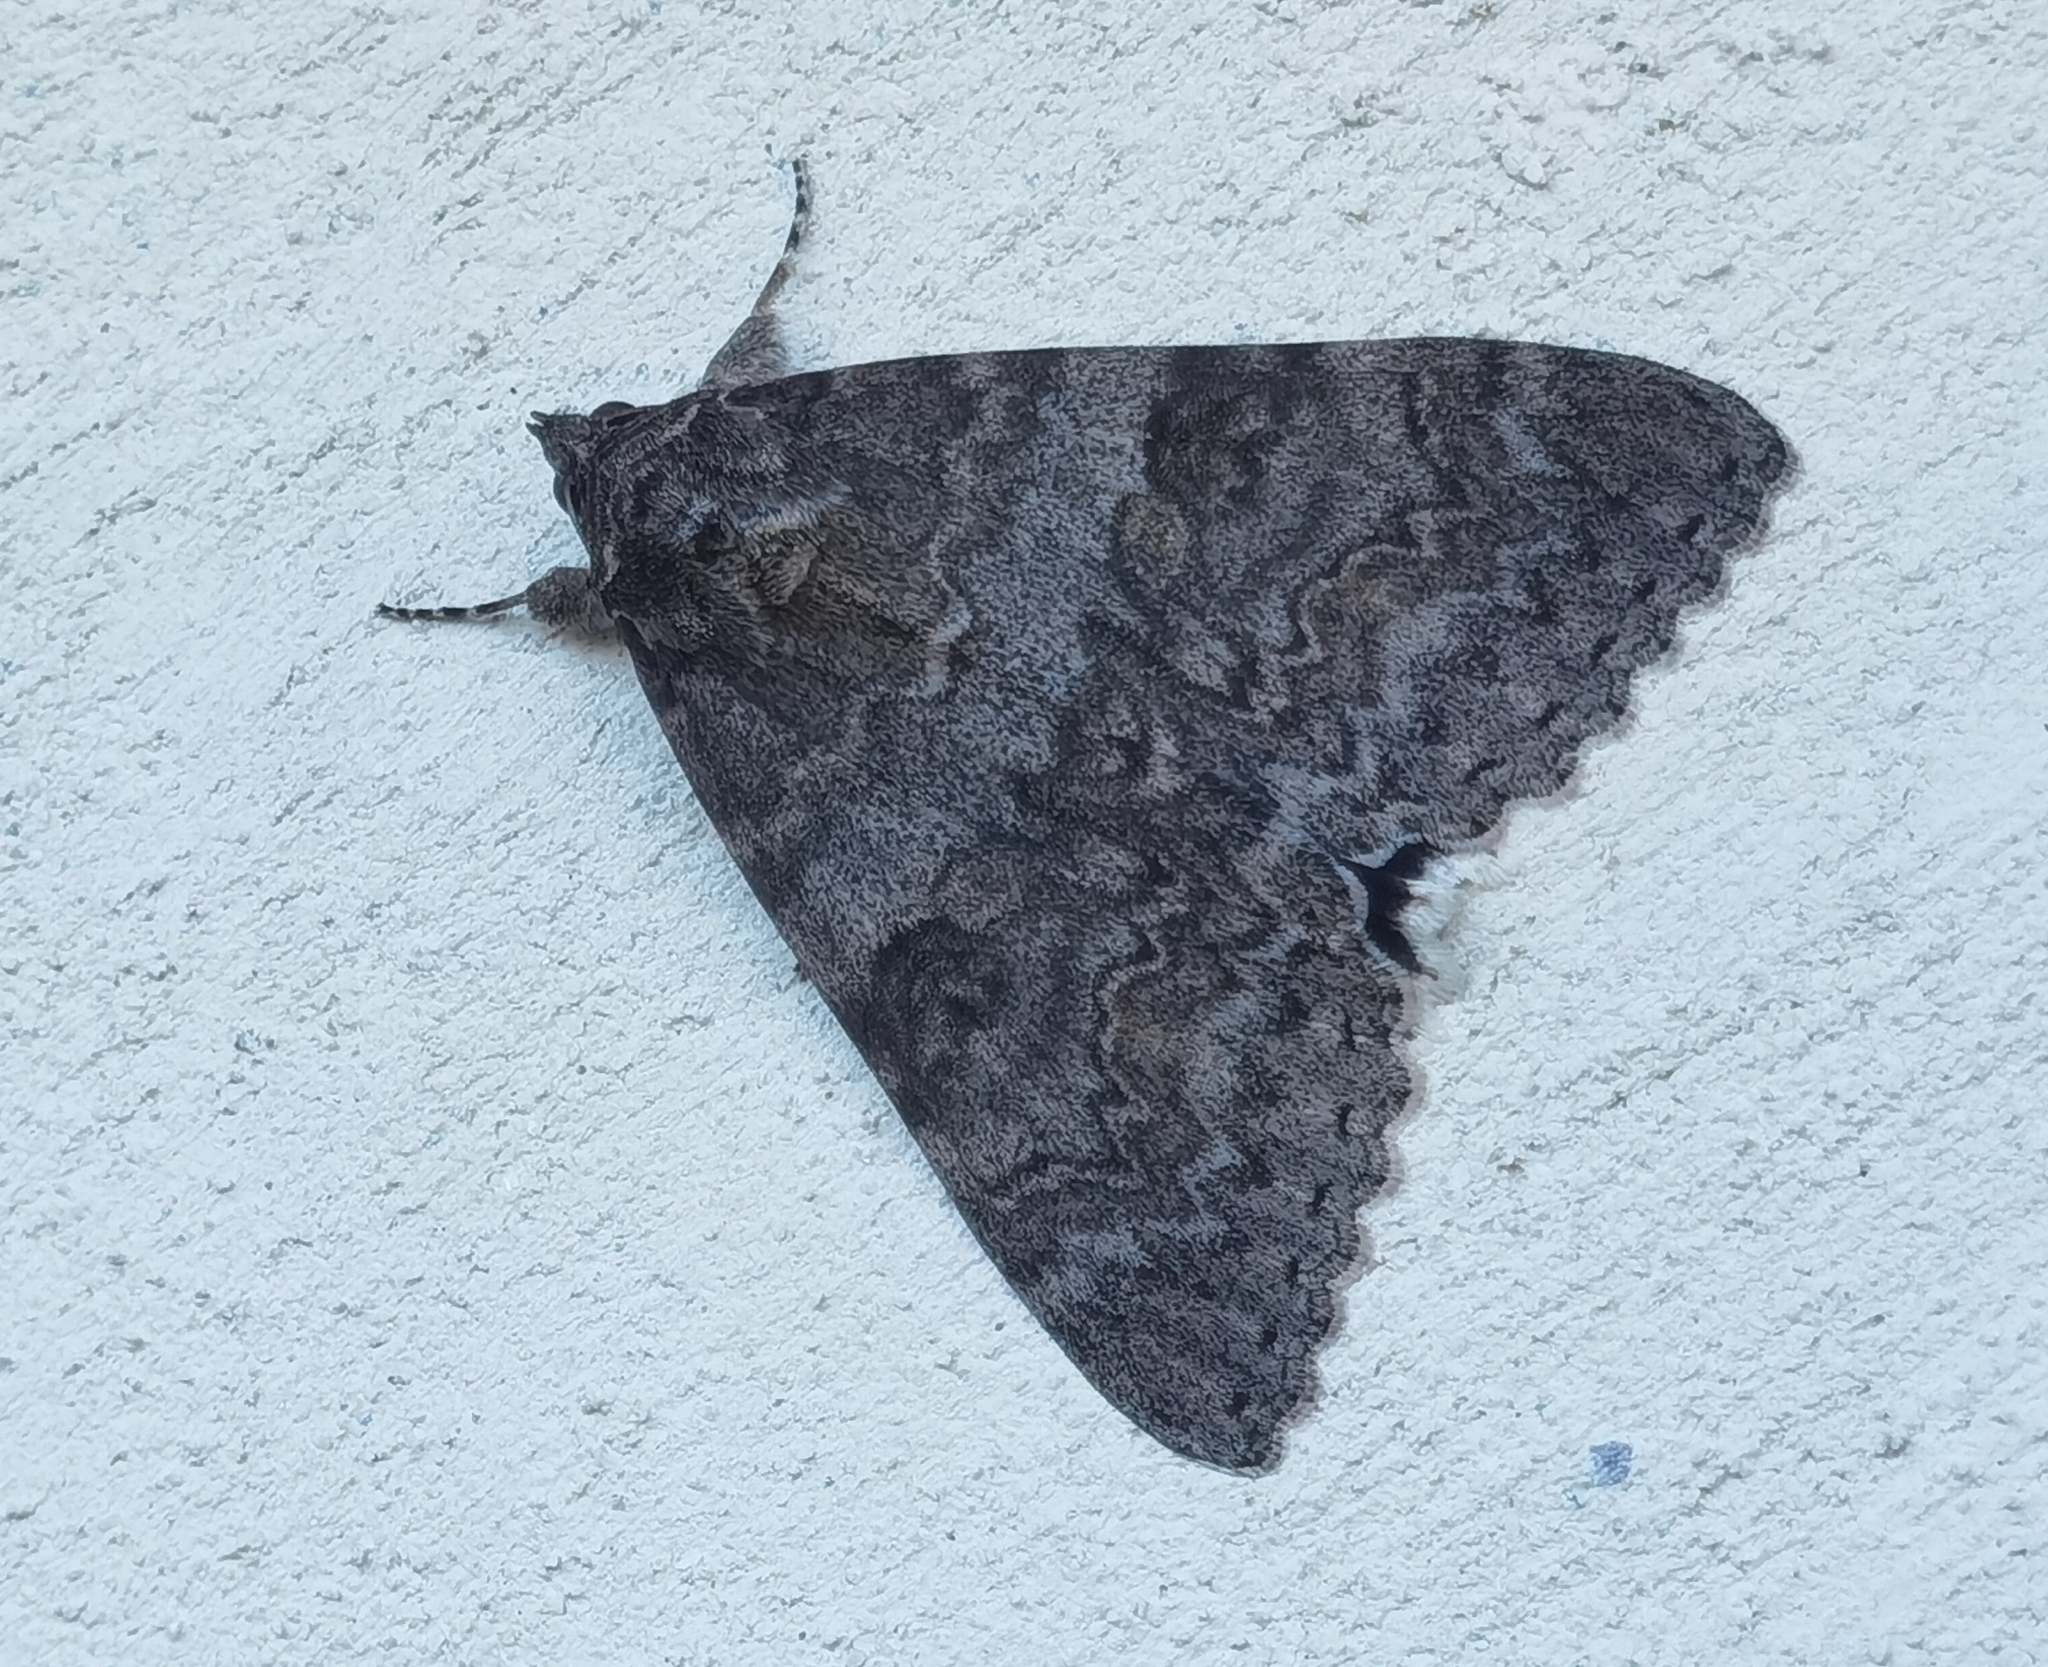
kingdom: Animalia
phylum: Arthropoda
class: Insecta
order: Lepidoptera
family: Erebidae
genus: Catocala
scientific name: Catocala nupta
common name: Red underwing
